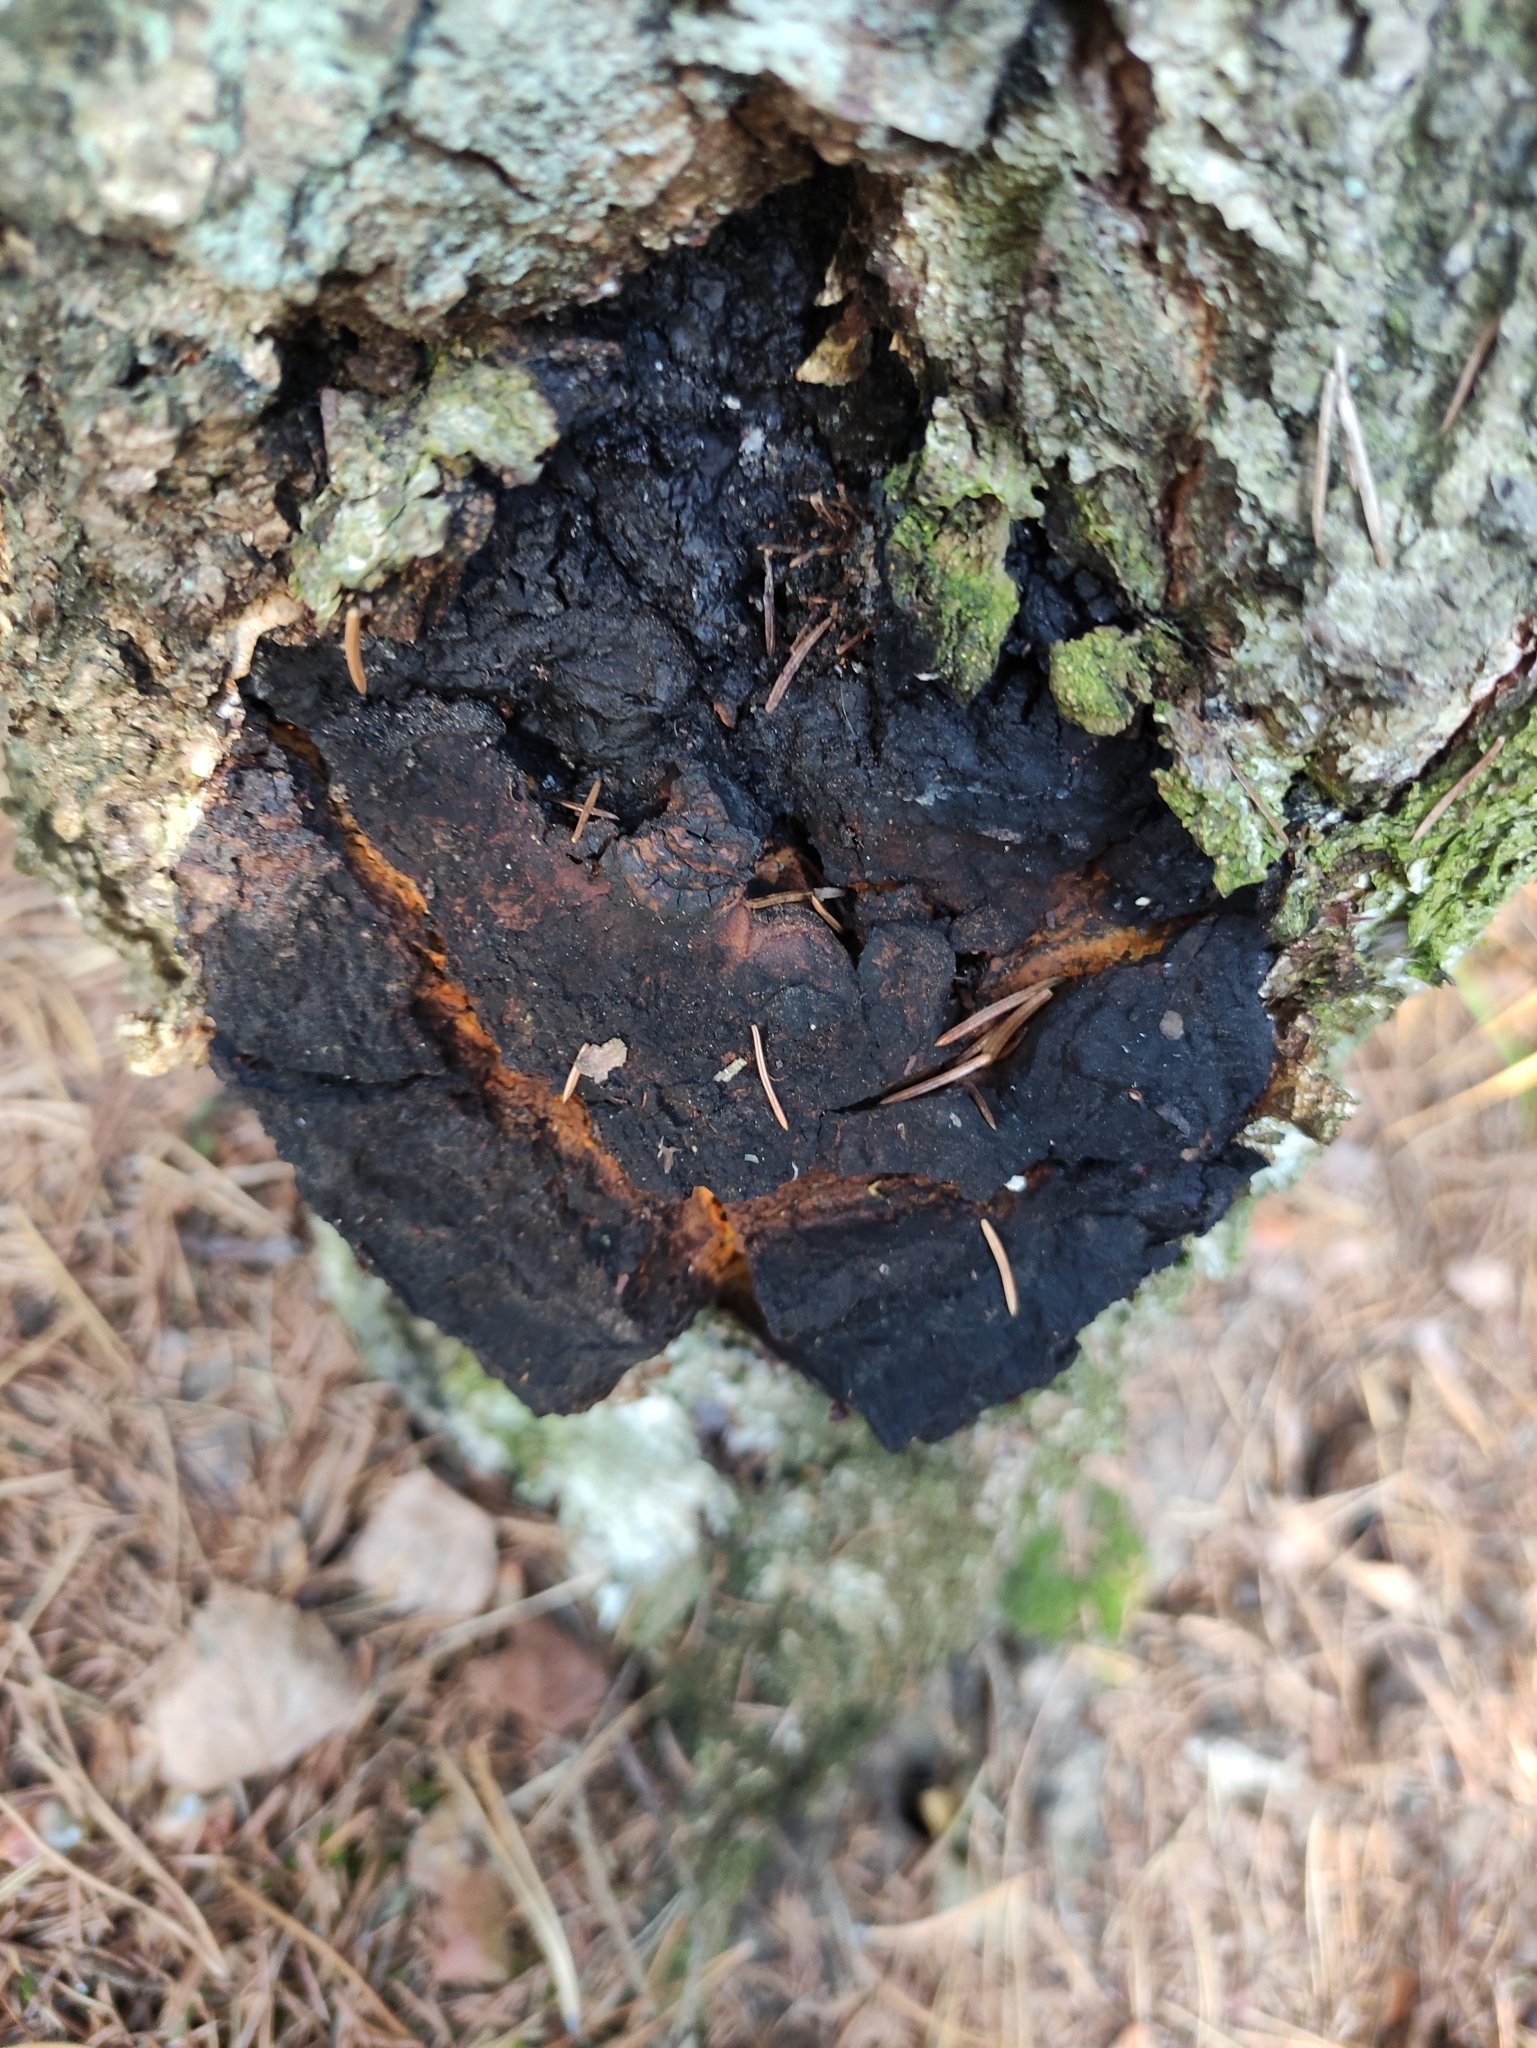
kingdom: Fungi
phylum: Basidiomycota
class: Agaricomycetes
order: Hymenochaetales
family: Hymenochaetaceae
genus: Inonotus
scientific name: Inonotus obliquus
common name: Chaga
